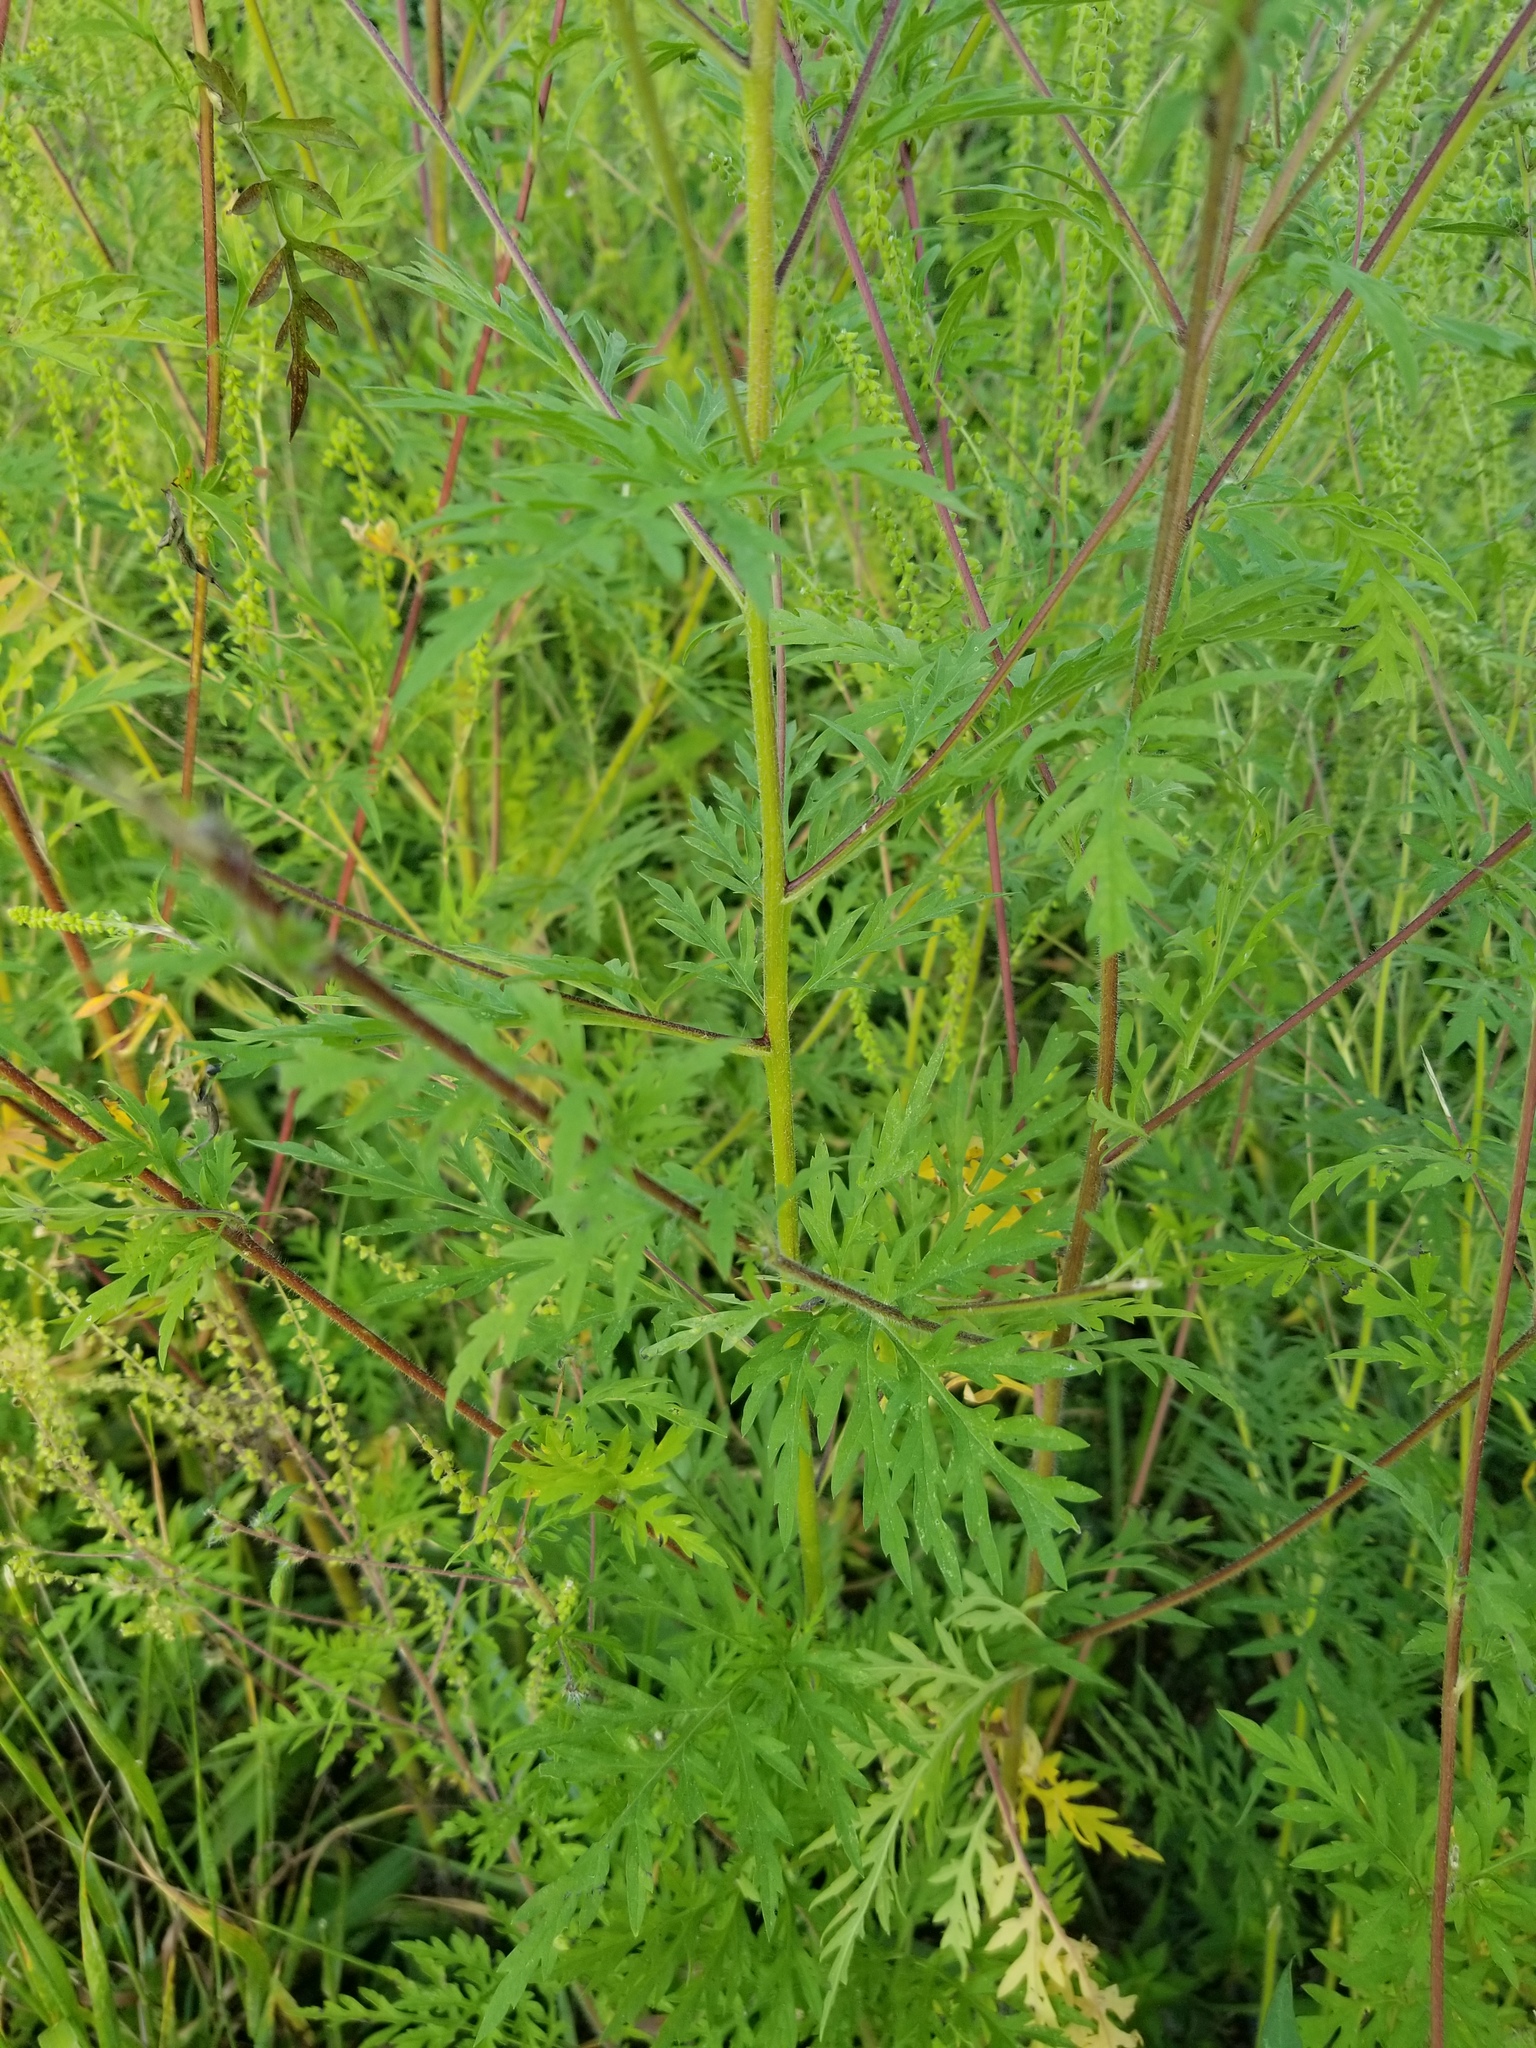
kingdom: Plantae
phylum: Tracheophyta
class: Magnoliopsida
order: Asterales
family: Asteraceae
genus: Ambrosia
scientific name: Ambrosia artemisiifolia
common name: Annual ragweed
